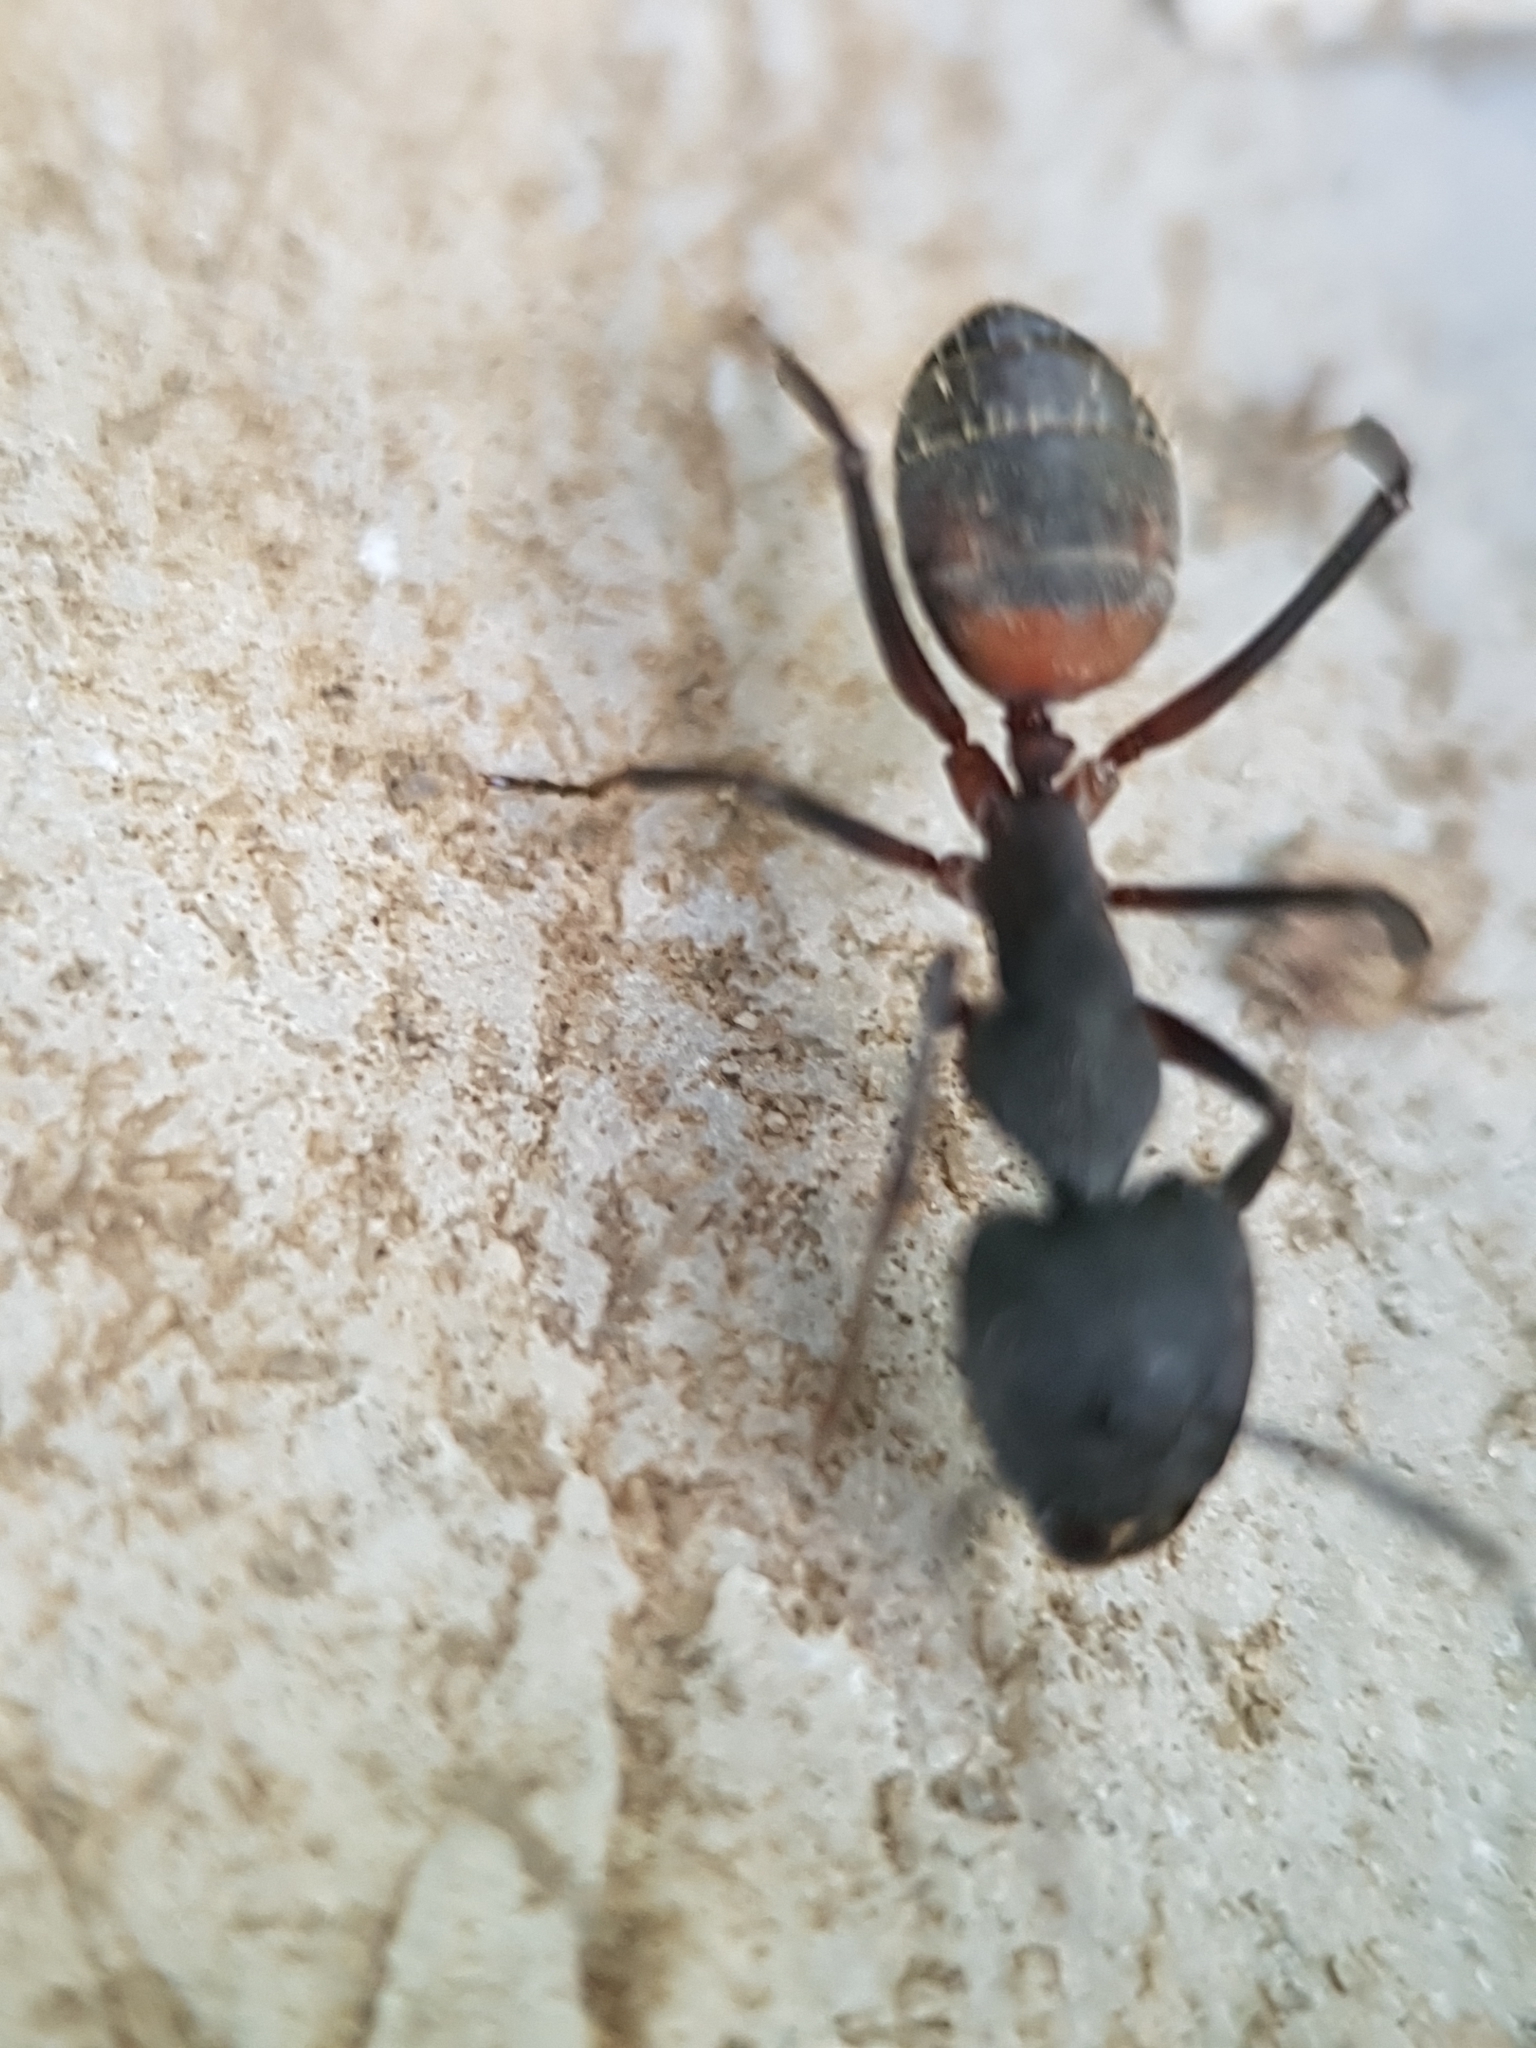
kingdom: Animalia
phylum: Arthropoda
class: Insecta
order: Hymenoptera
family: Formicidae
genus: Camponotus
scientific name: Camponotus cruentatus
